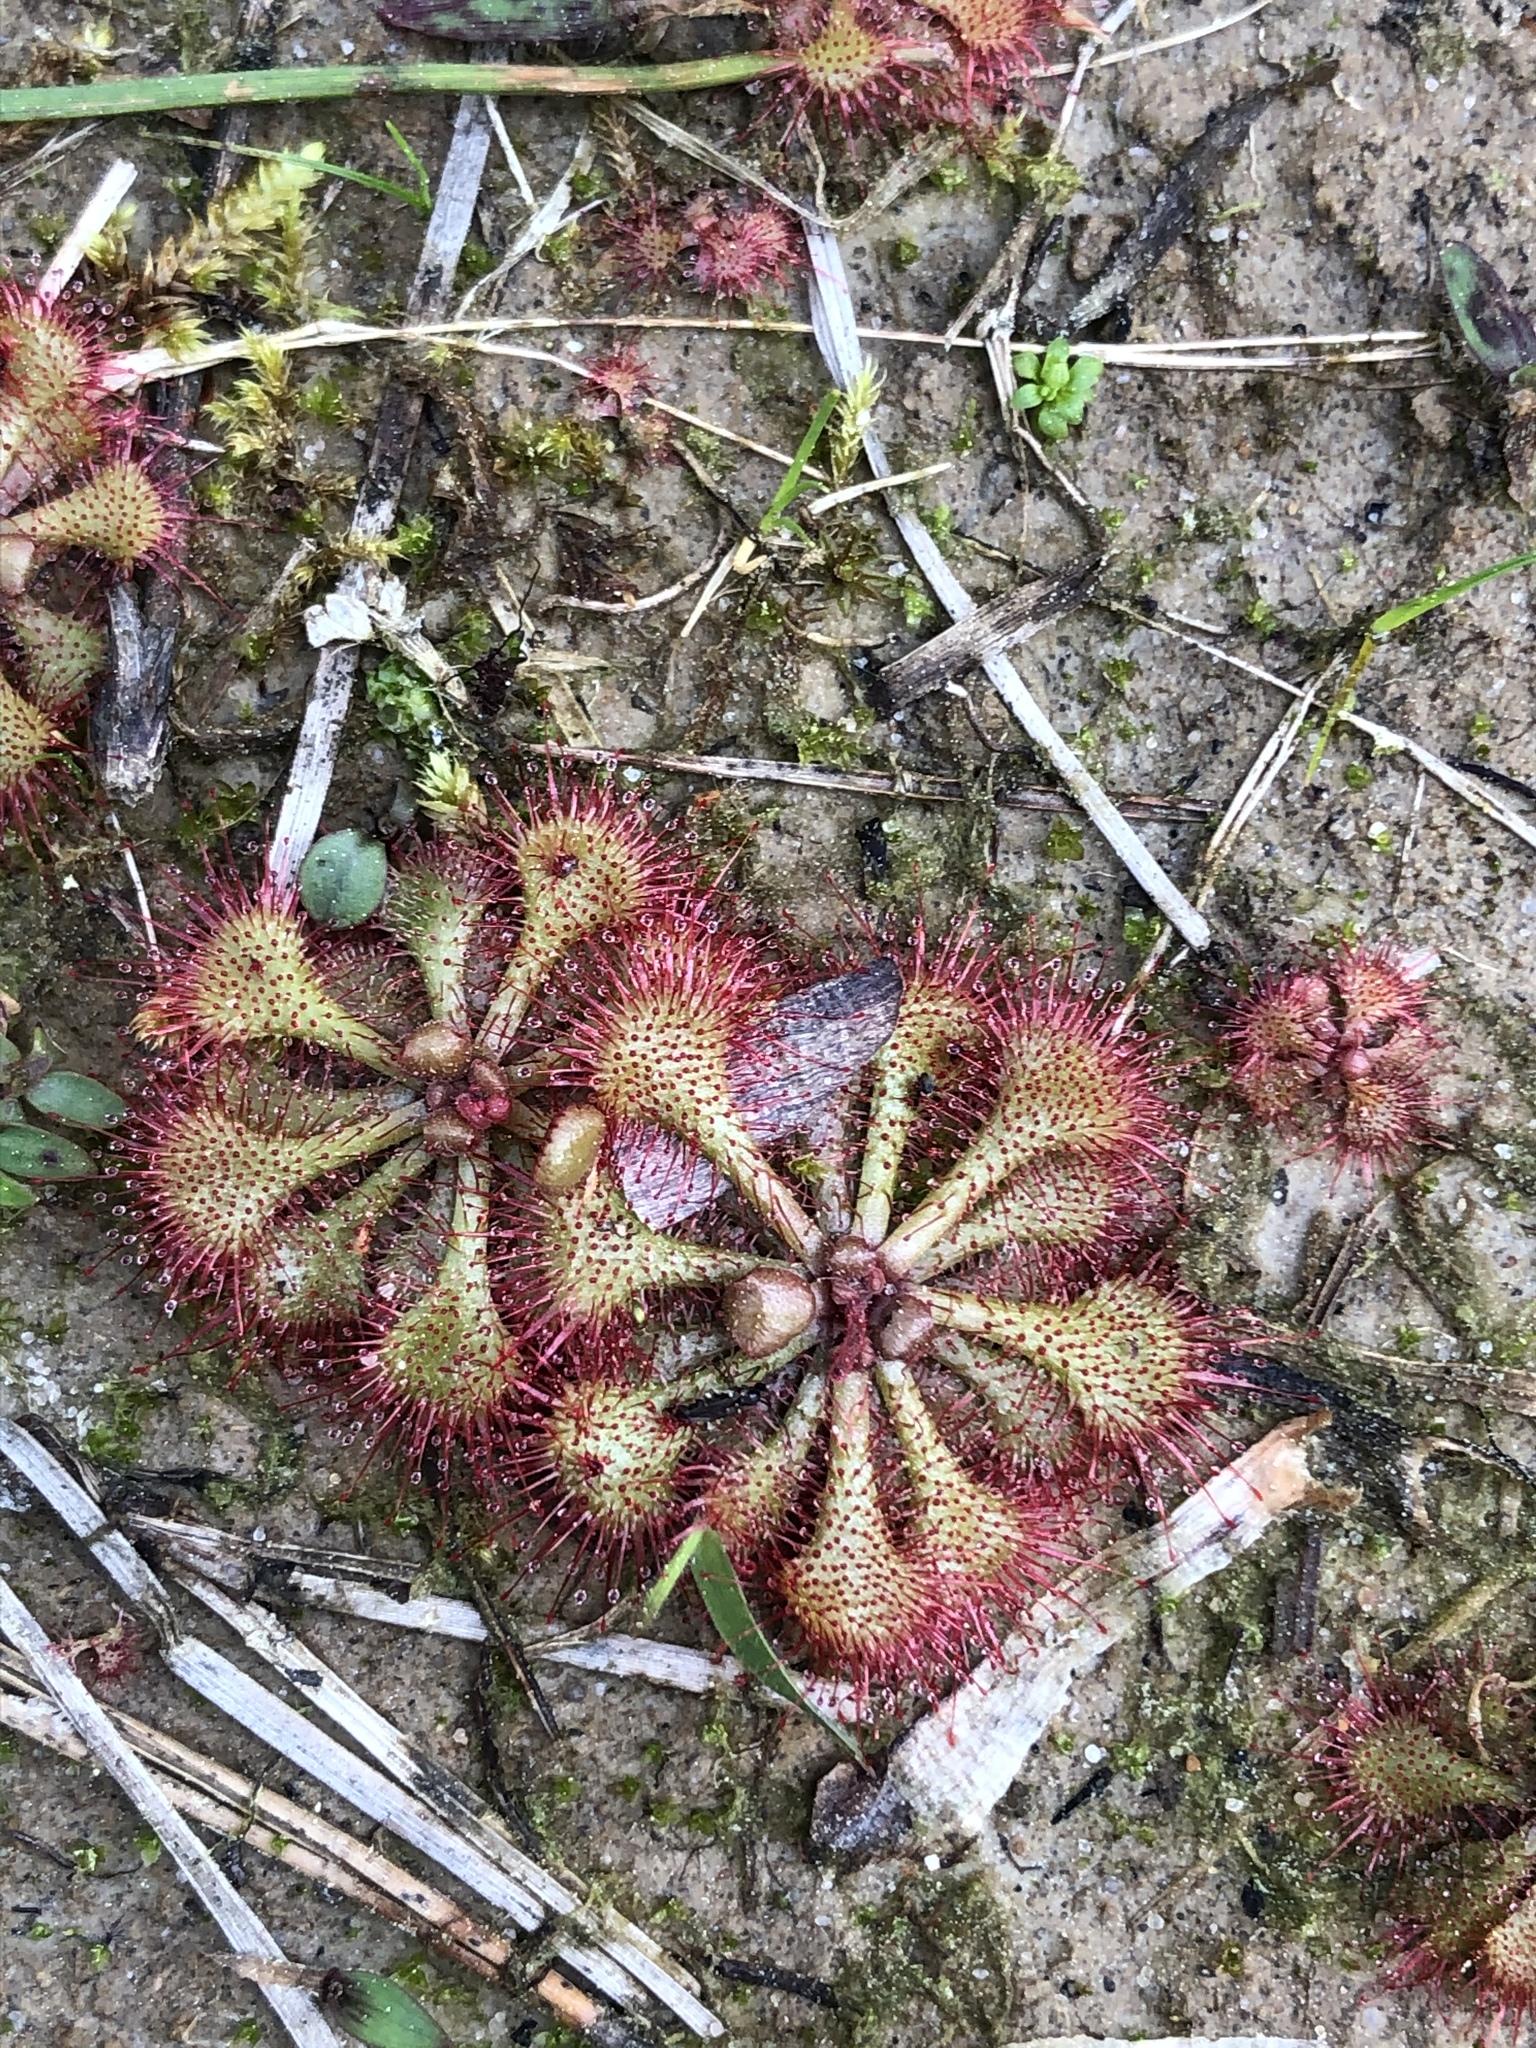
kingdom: Plantae
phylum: Tracheophyta
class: Magnoliopsida
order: Caryophyllales
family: Droseraceae
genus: Drosera
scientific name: Drosera brevifolia
